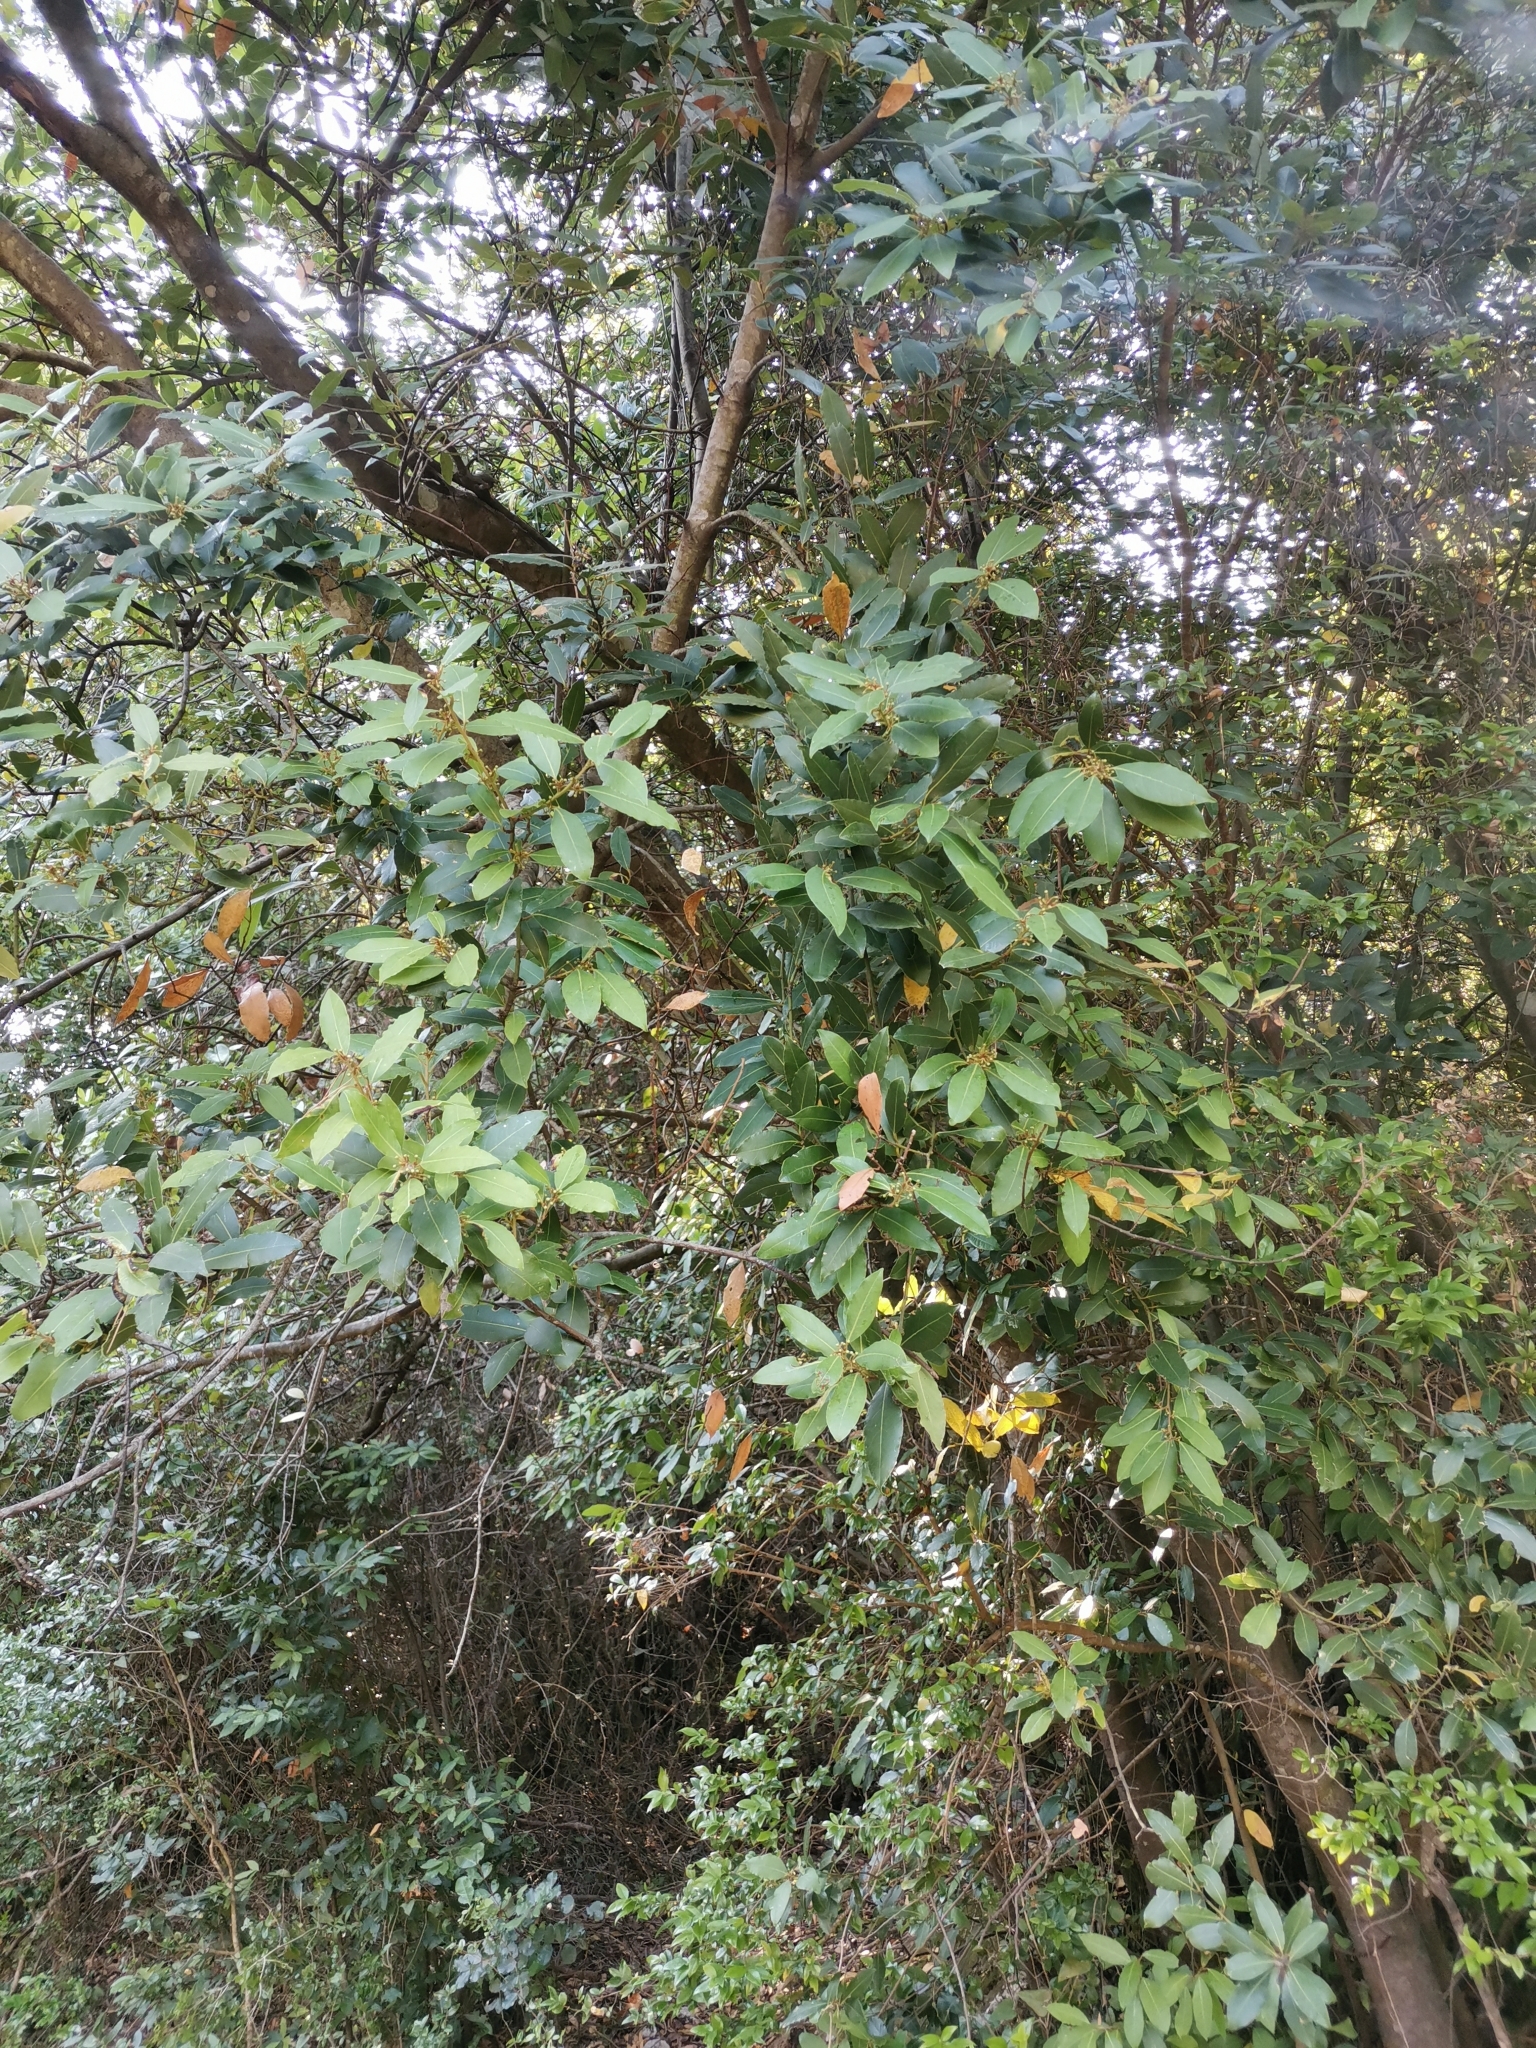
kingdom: Plantae
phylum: Tracheophyta
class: Magnoliopsida
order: Laurales
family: Lauraceae
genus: Laurus
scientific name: Laurus nobilis
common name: Bay
